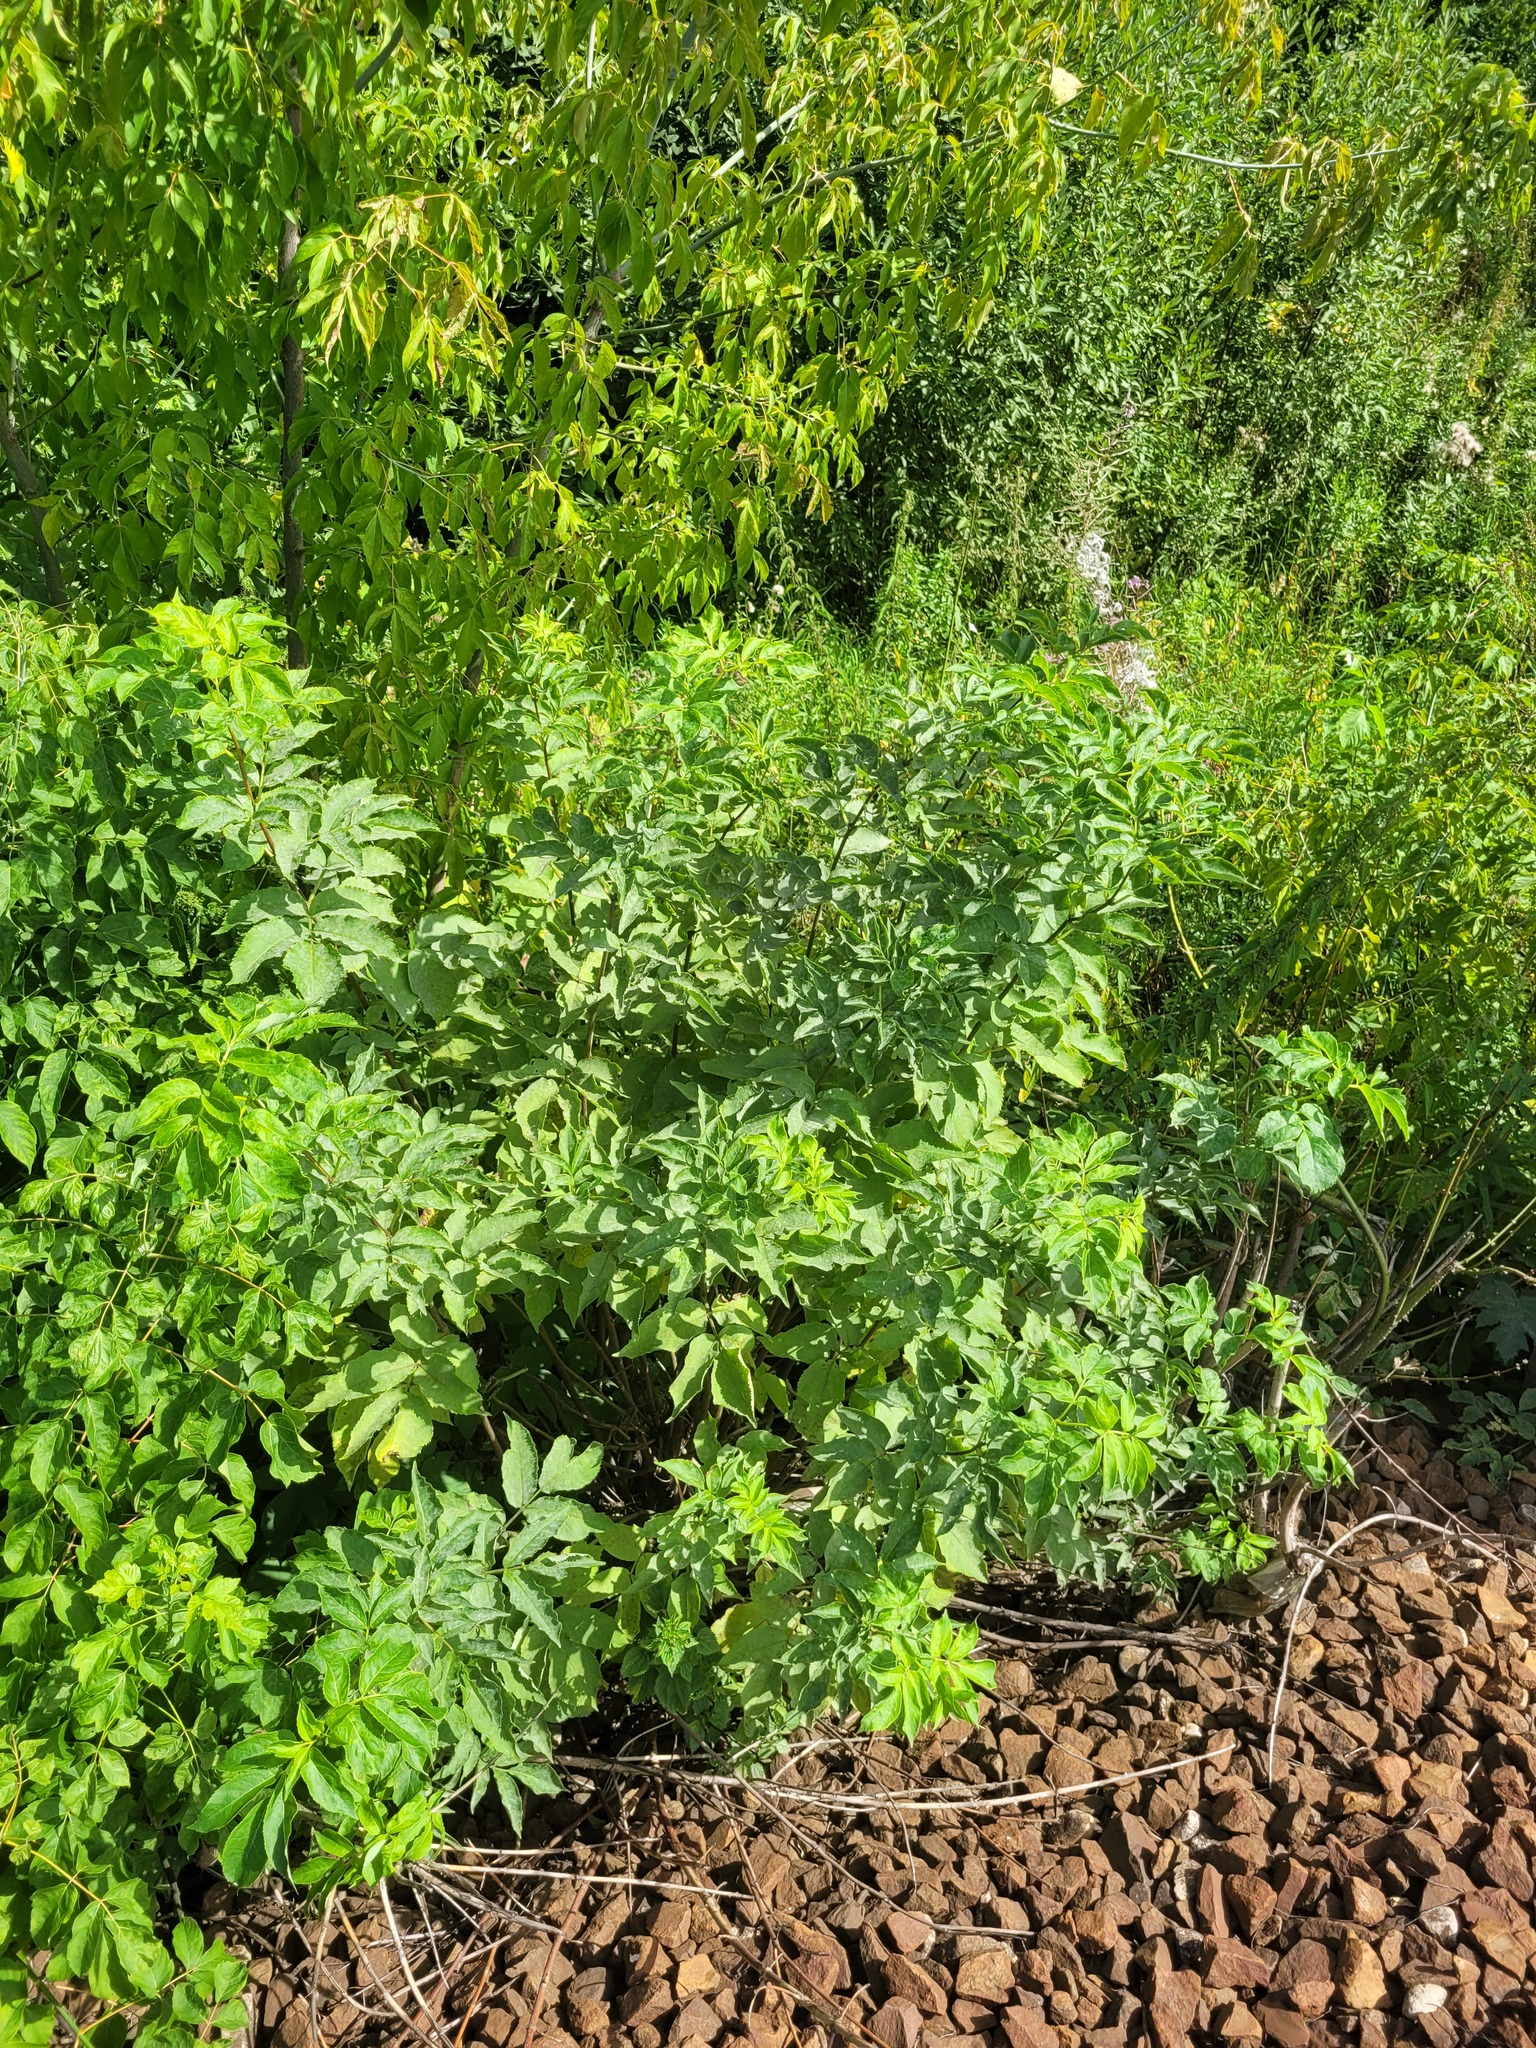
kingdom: Plantae
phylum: Tracheophyta
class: Magnoliopsida
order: Dipsacales
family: Viburnaceae
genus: Sambucus
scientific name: Sambucus racemosa
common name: Red-berried elder
